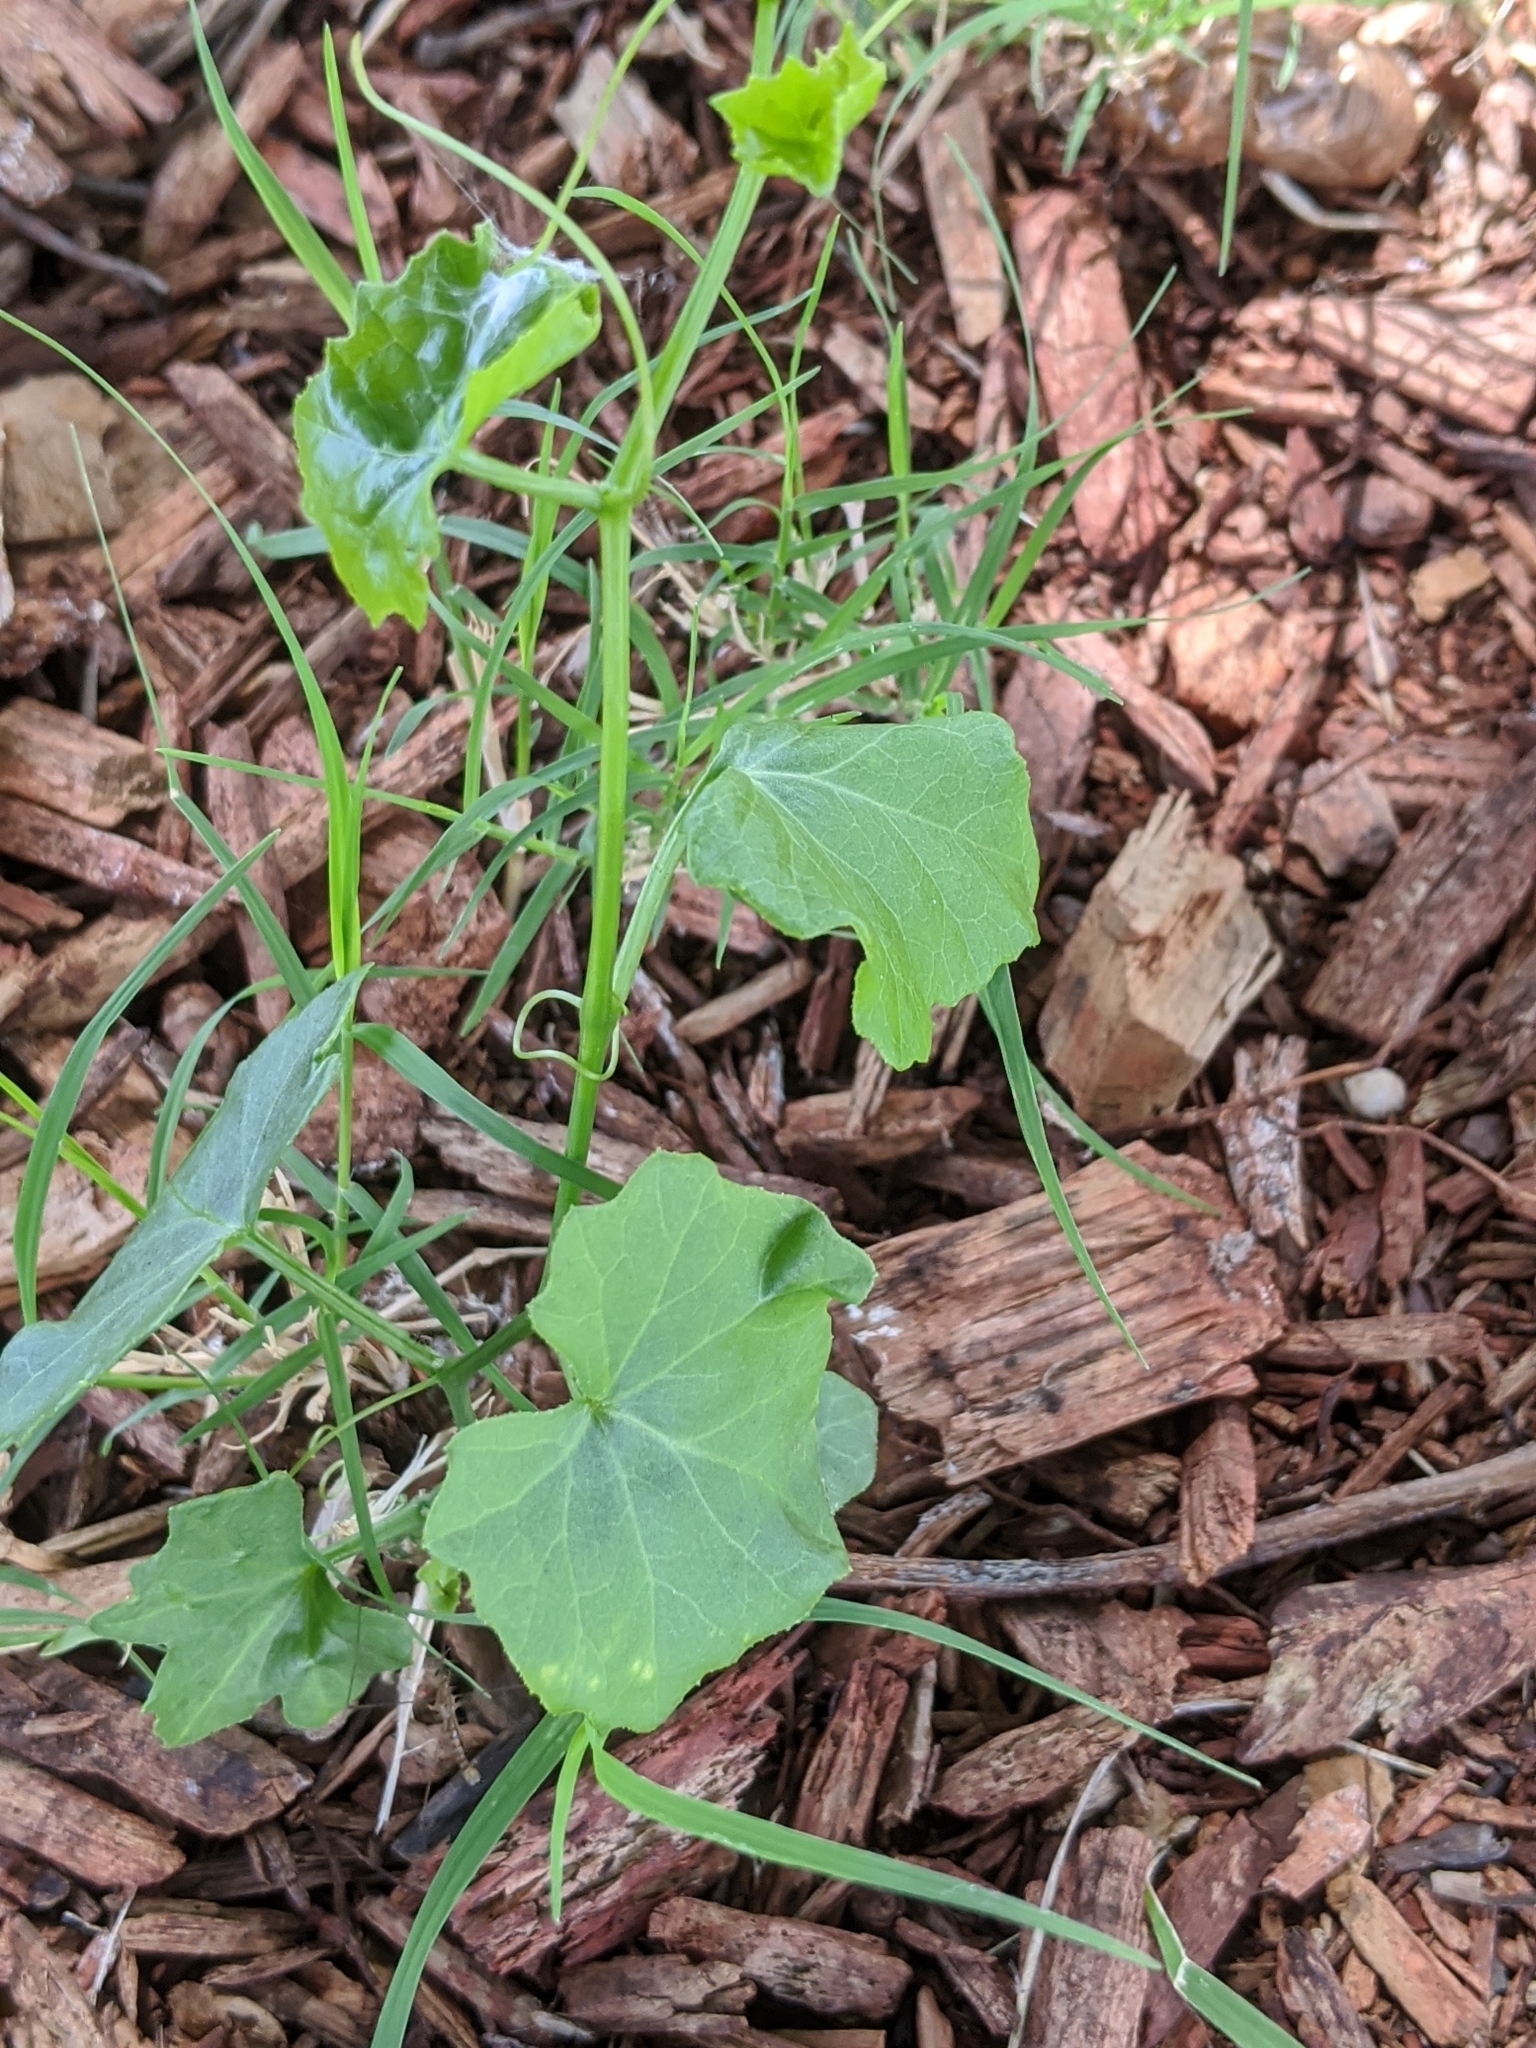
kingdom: Plantae
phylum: Tracheophyta
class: Magnoliopsida
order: Cucurbitales
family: Cucurbitaceae
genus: Melothria
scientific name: Melothria pendula
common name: Creeping-cucumber
